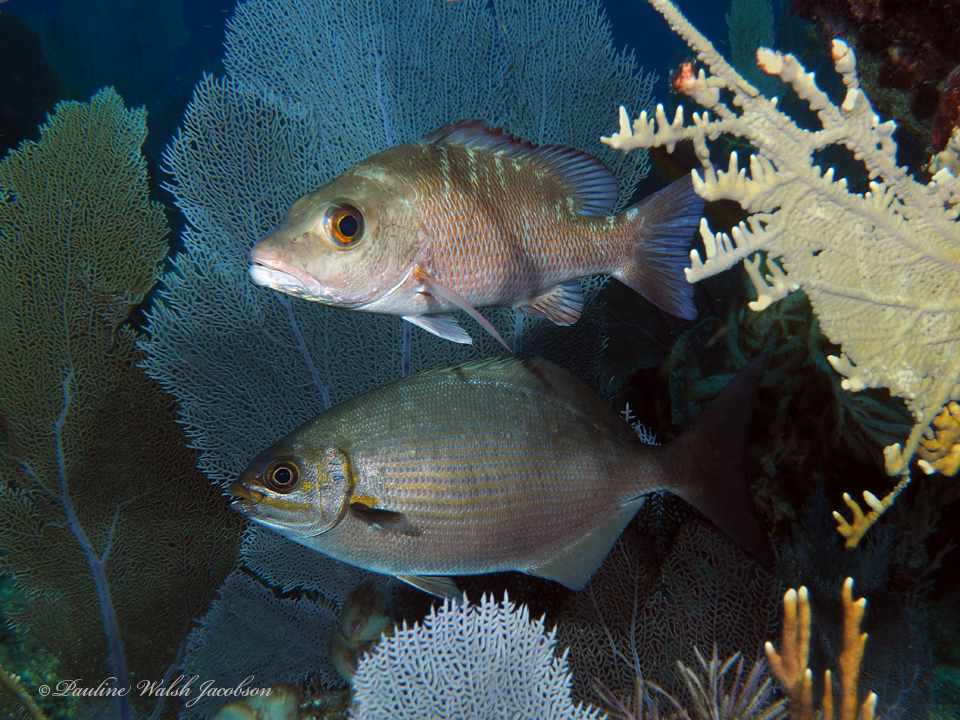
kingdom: Animalia
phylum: Chordata
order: Perciformes
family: Kyphosidae
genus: Kyphosus
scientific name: Kyphosus vaigiensis
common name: Brassy chub
